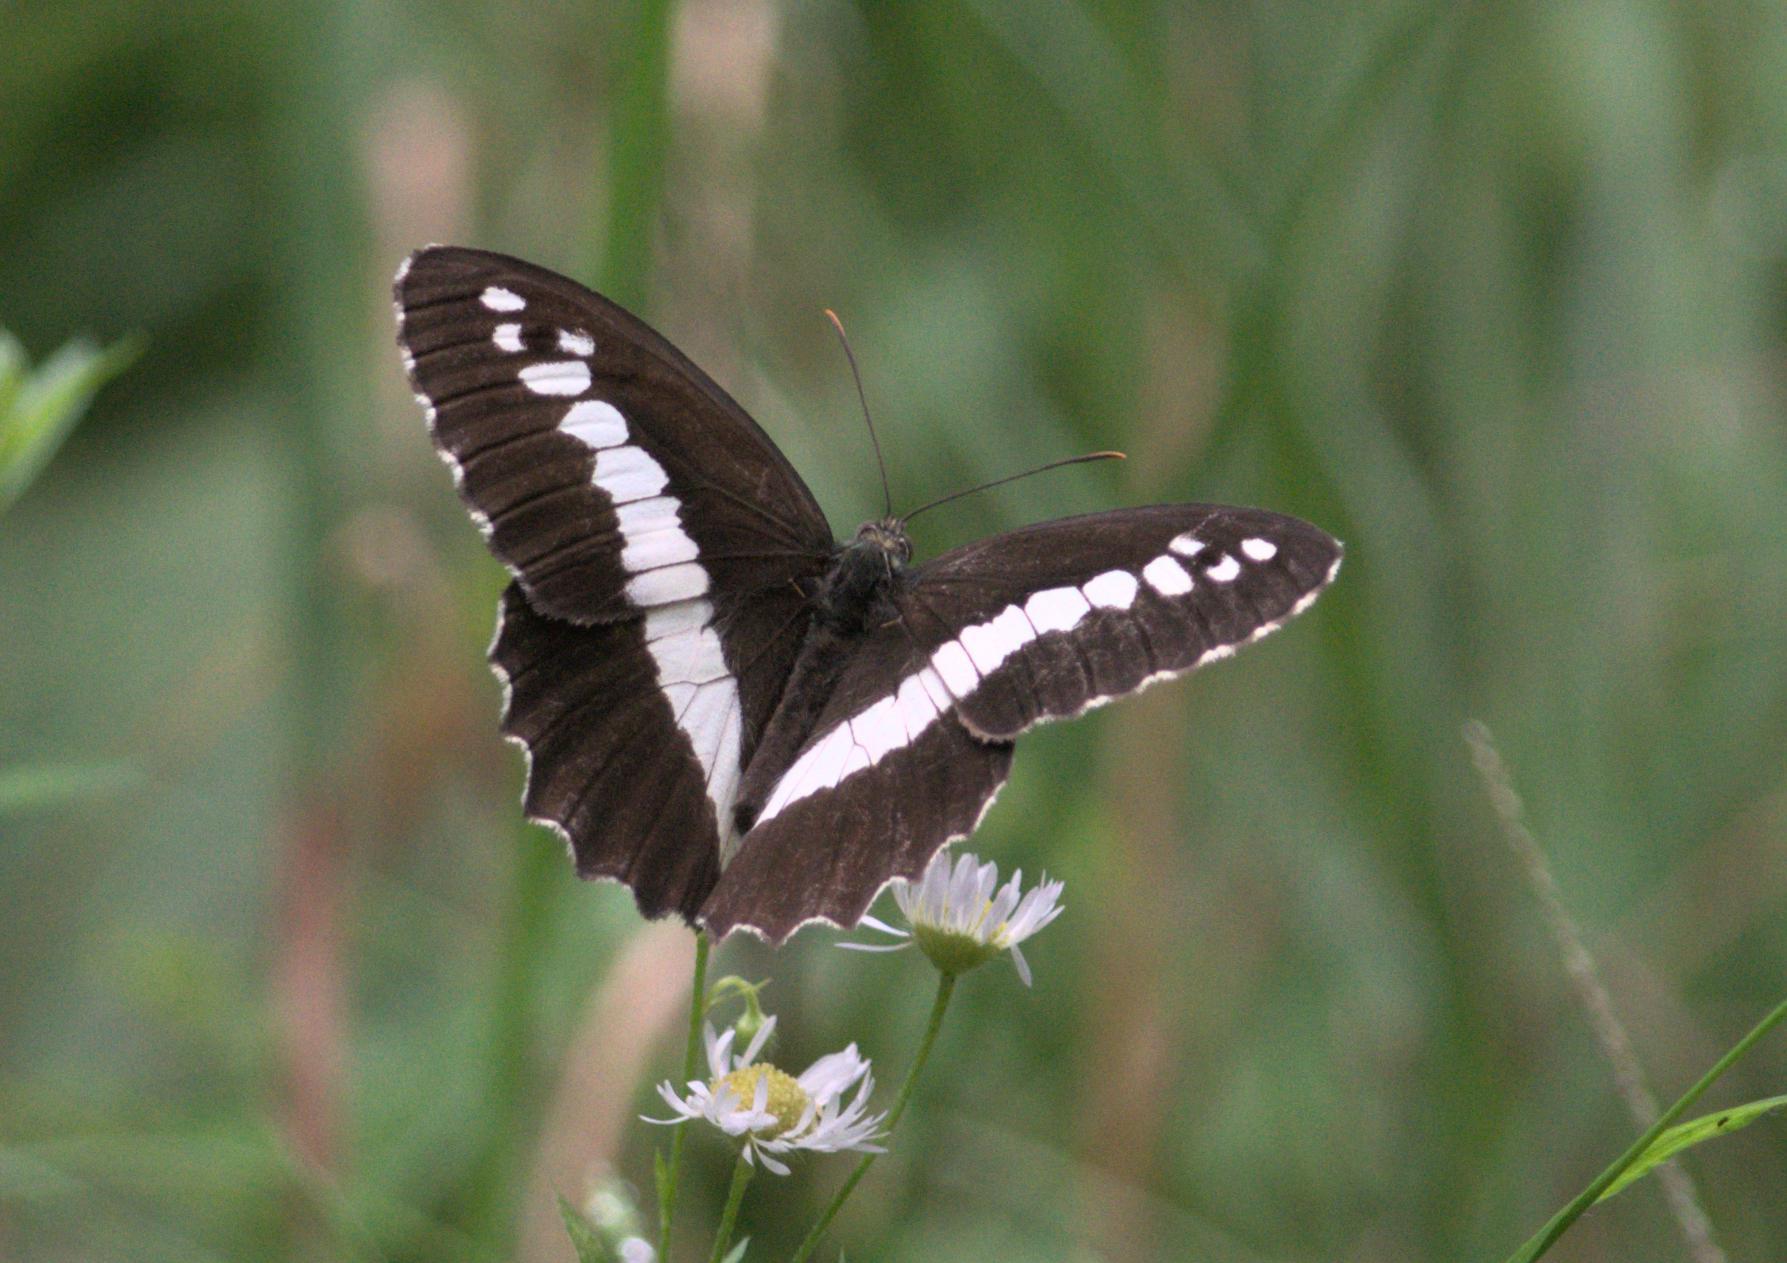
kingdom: Animalia
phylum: Arthropoda
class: Insecta
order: Lepidoptera
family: Nymphalidae
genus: Satyrus
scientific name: Satyrus
